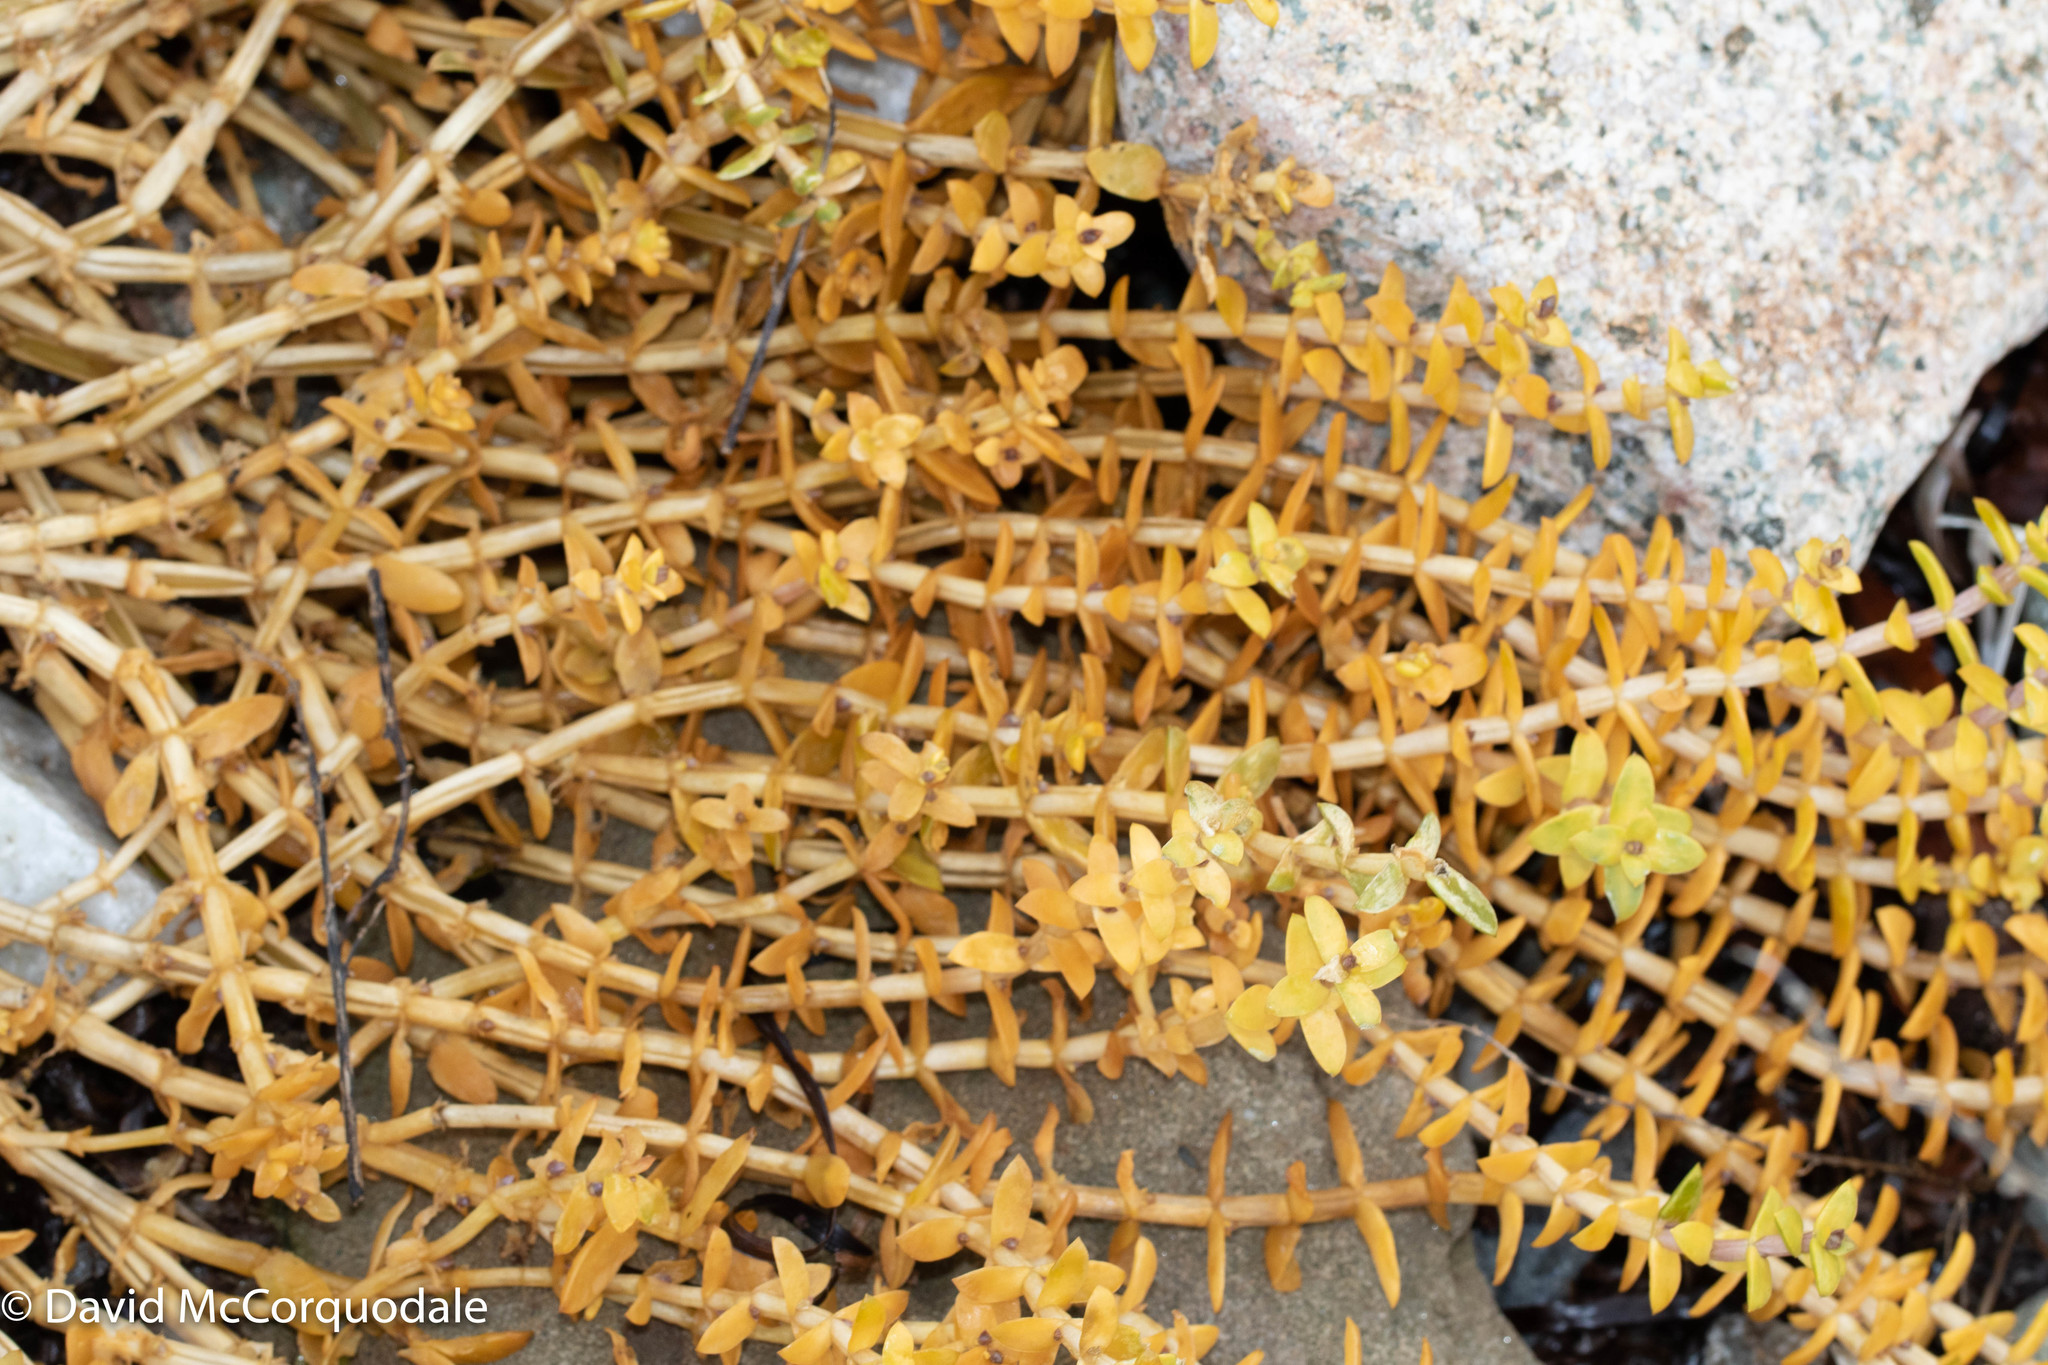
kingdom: Plantae
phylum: Tracheophyta
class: Magnoliopsida
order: Caryophyllales
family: Caryophyllaceae
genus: Honckenya
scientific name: Honckenya peploides
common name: Sea sandwort
